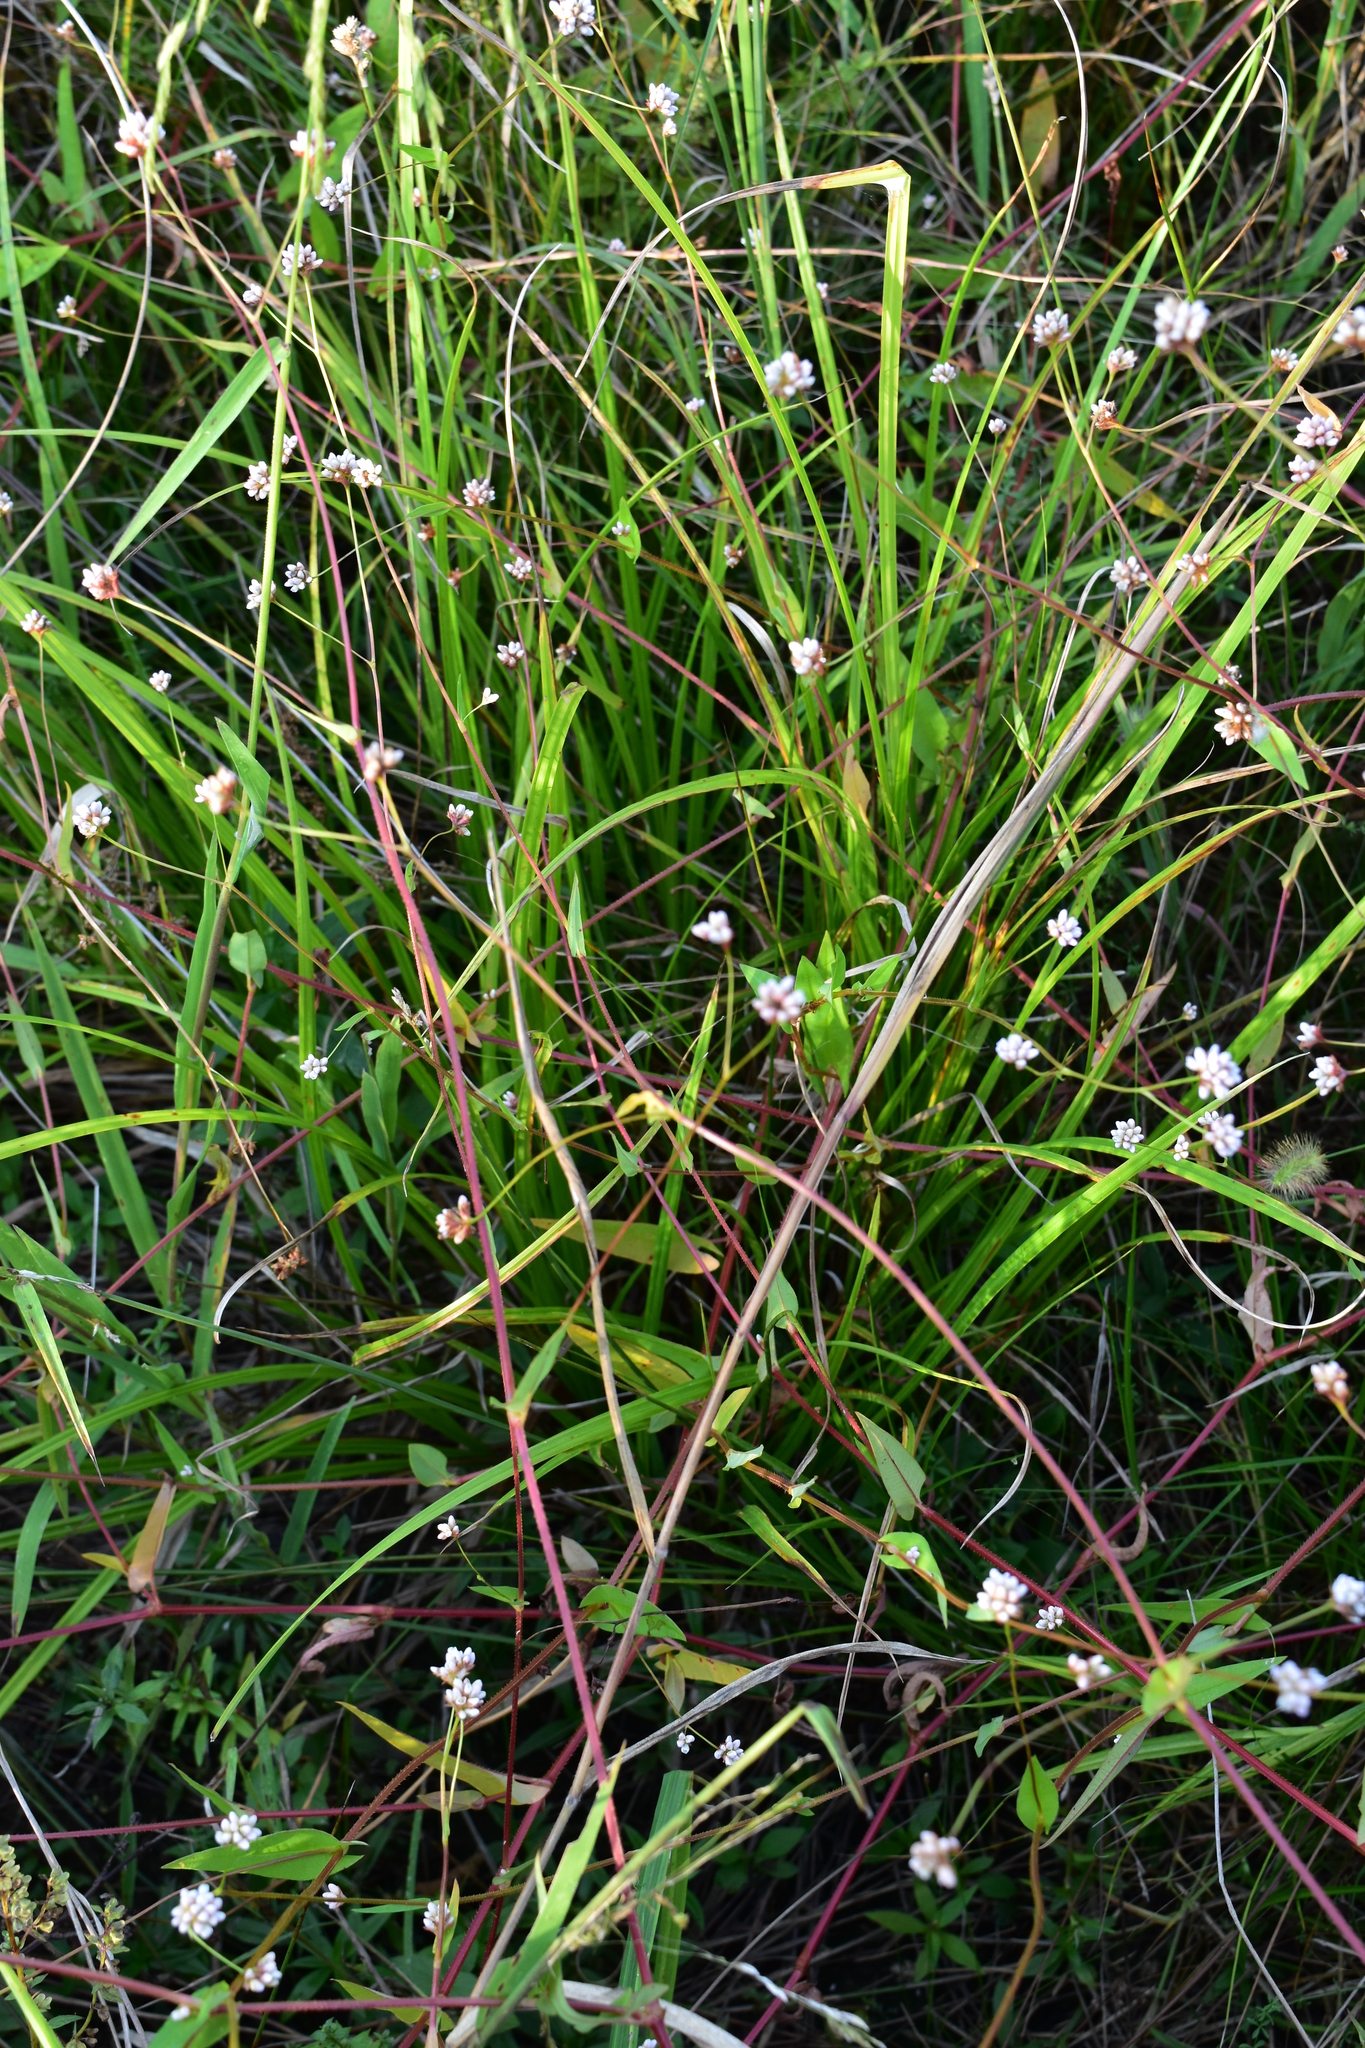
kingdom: Plantae
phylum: Tracheophyta
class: Magnoliopsida
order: Caryophyllales
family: Polygonaceae
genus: Persicaria
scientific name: Persicaria sagittata
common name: American tearthumb
